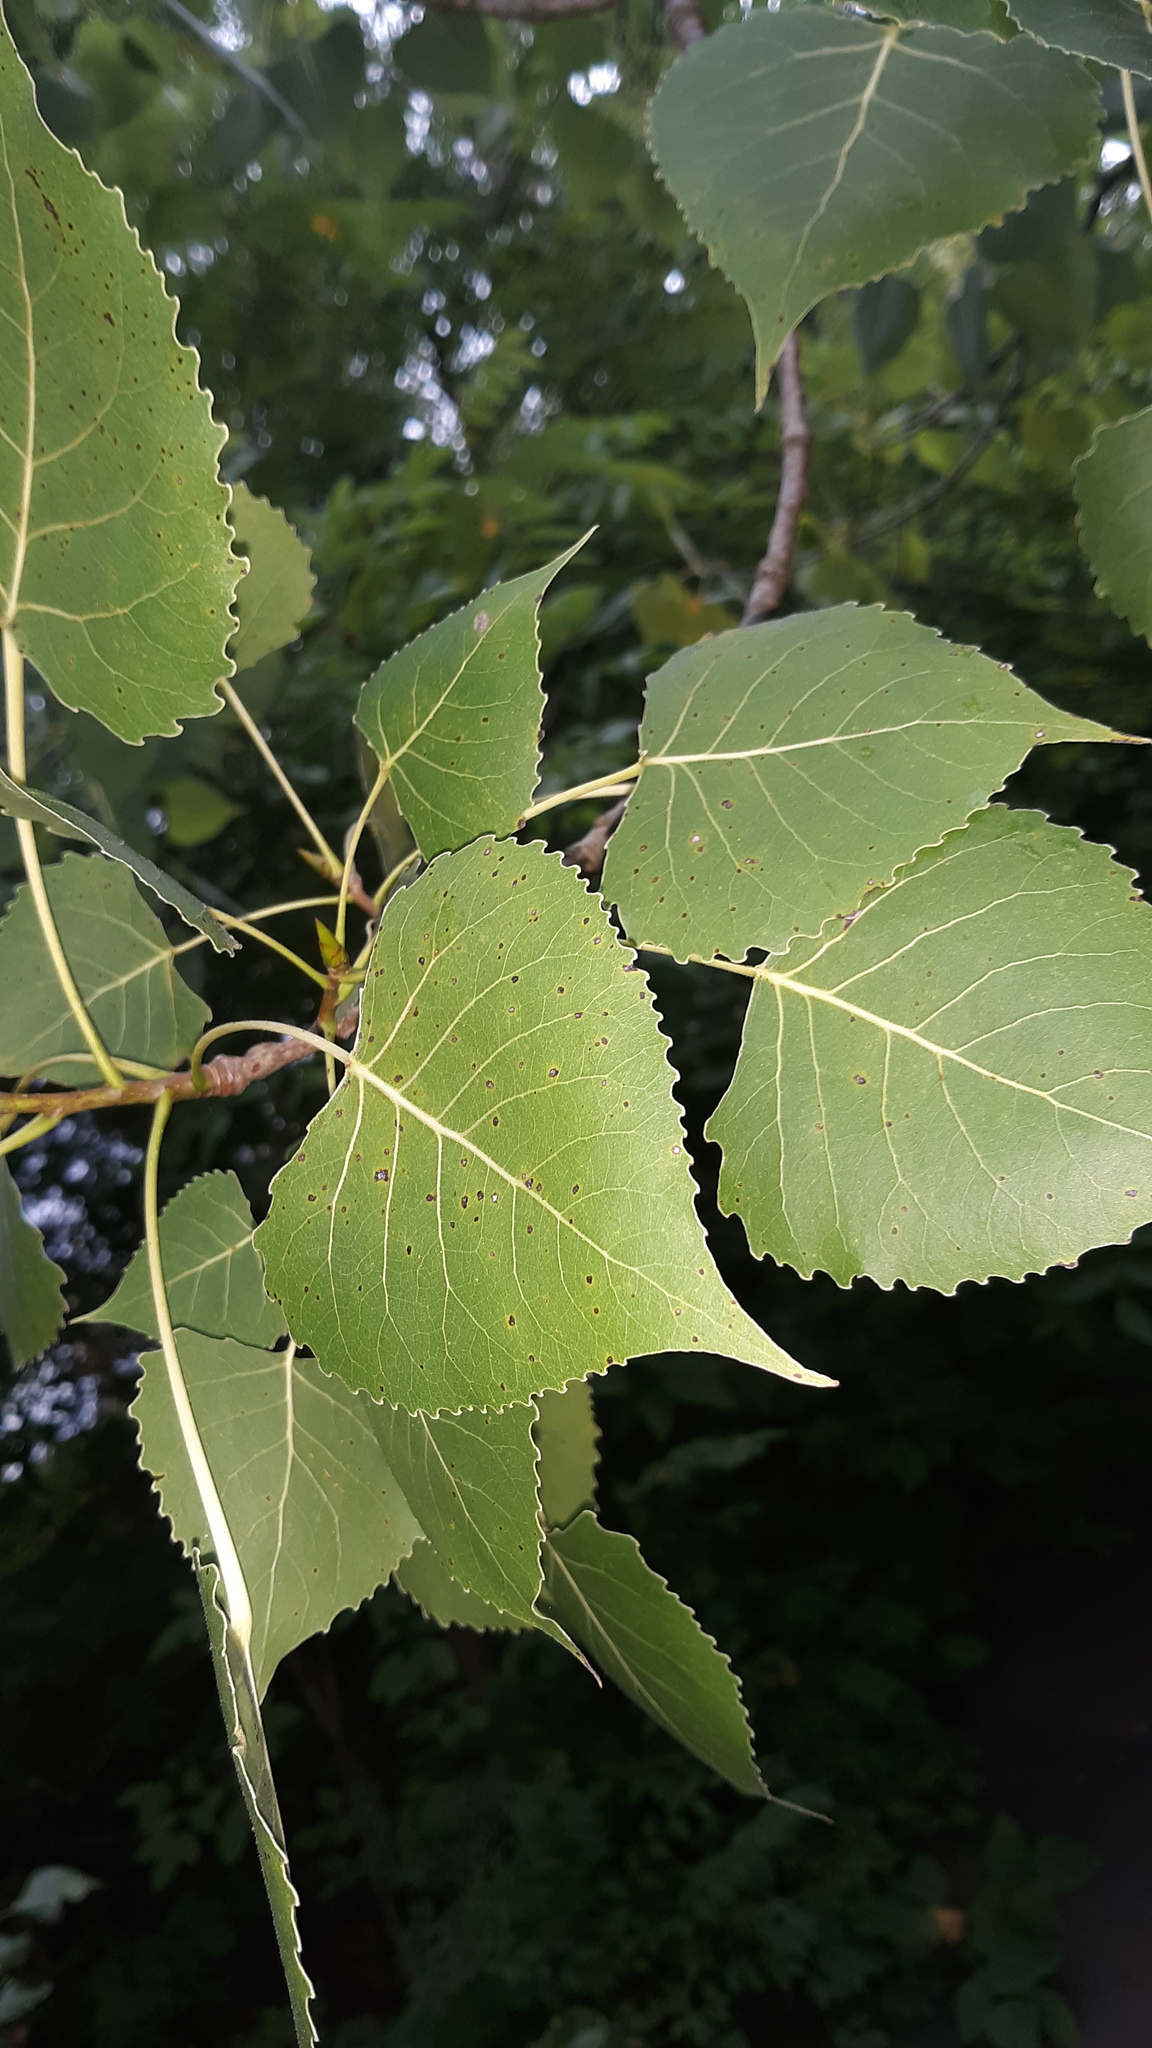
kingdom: Plantae
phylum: Tracheophyta
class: Magnoliopsida
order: Malpighiales
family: Salicaceae
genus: Populus
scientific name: Populus deltoides
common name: Eastern cottonwood
